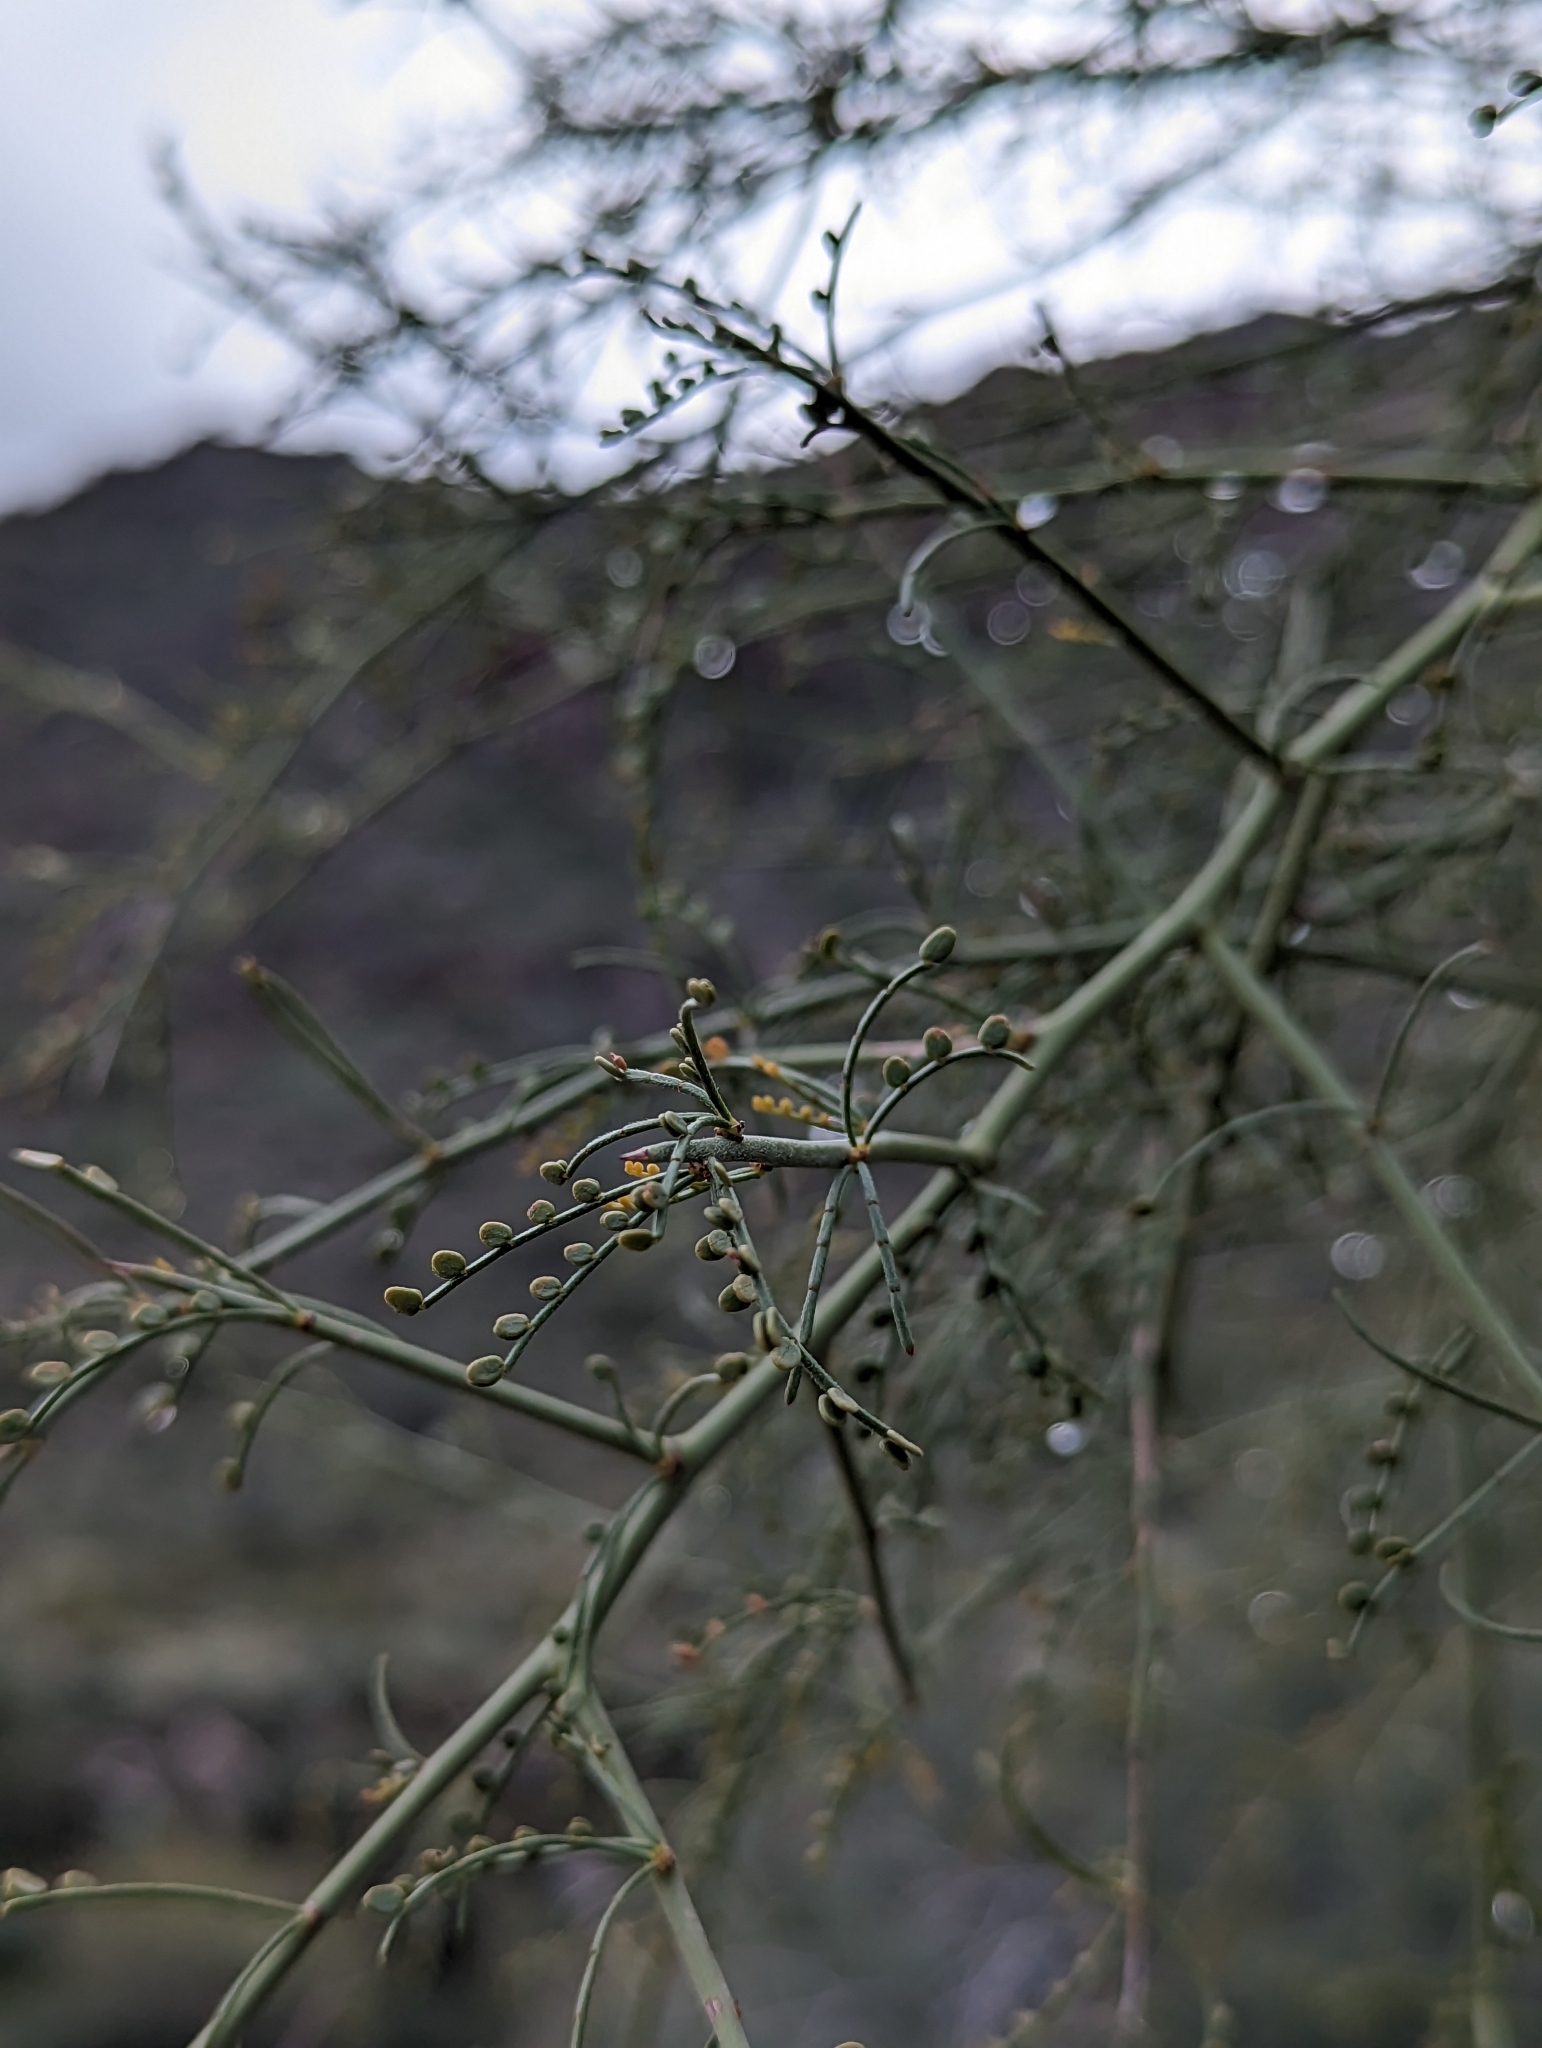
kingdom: Plantae
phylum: Tracheophyta
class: Magnoliopsida
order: Fabales
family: Fabaceae
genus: Parkinsonia
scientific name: Parkinsonia microphylla
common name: Yellow paloverde
